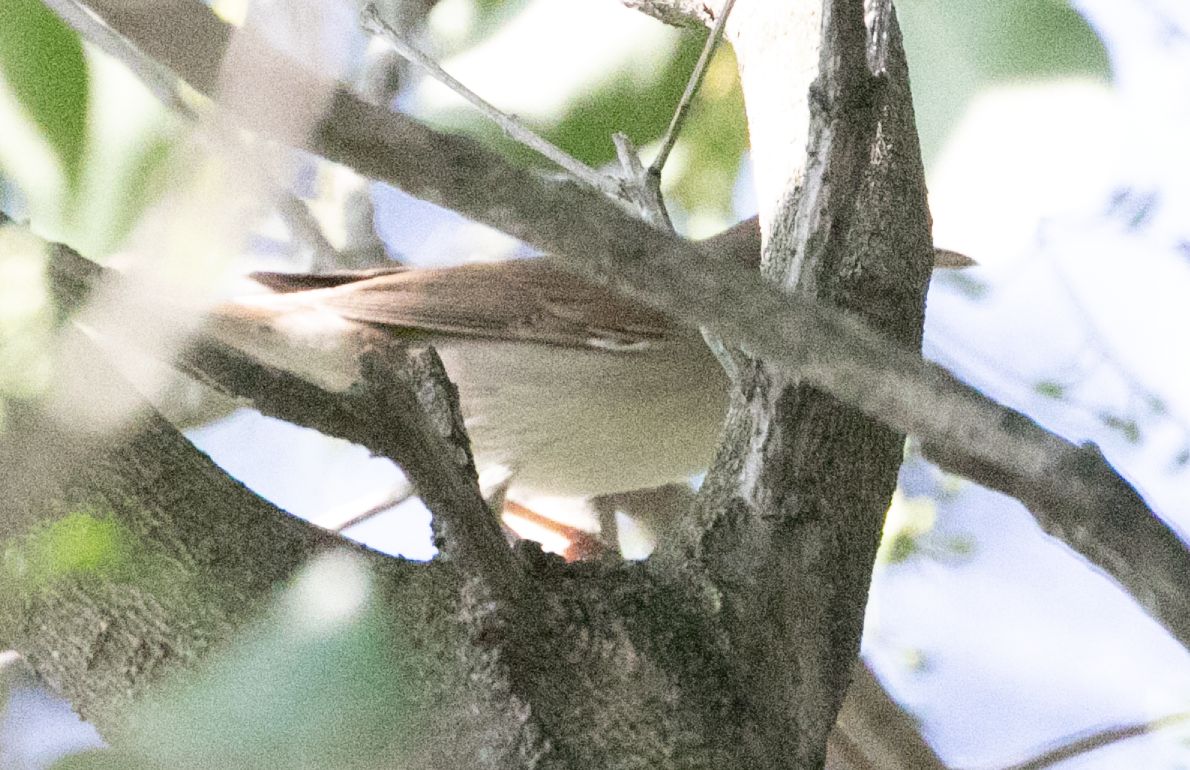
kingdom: Animalia
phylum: Chordata
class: Aves
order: Passeriformes
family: Sylviidae
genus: Sylvia
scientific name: Sylvia communis
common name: Common whitethroat
